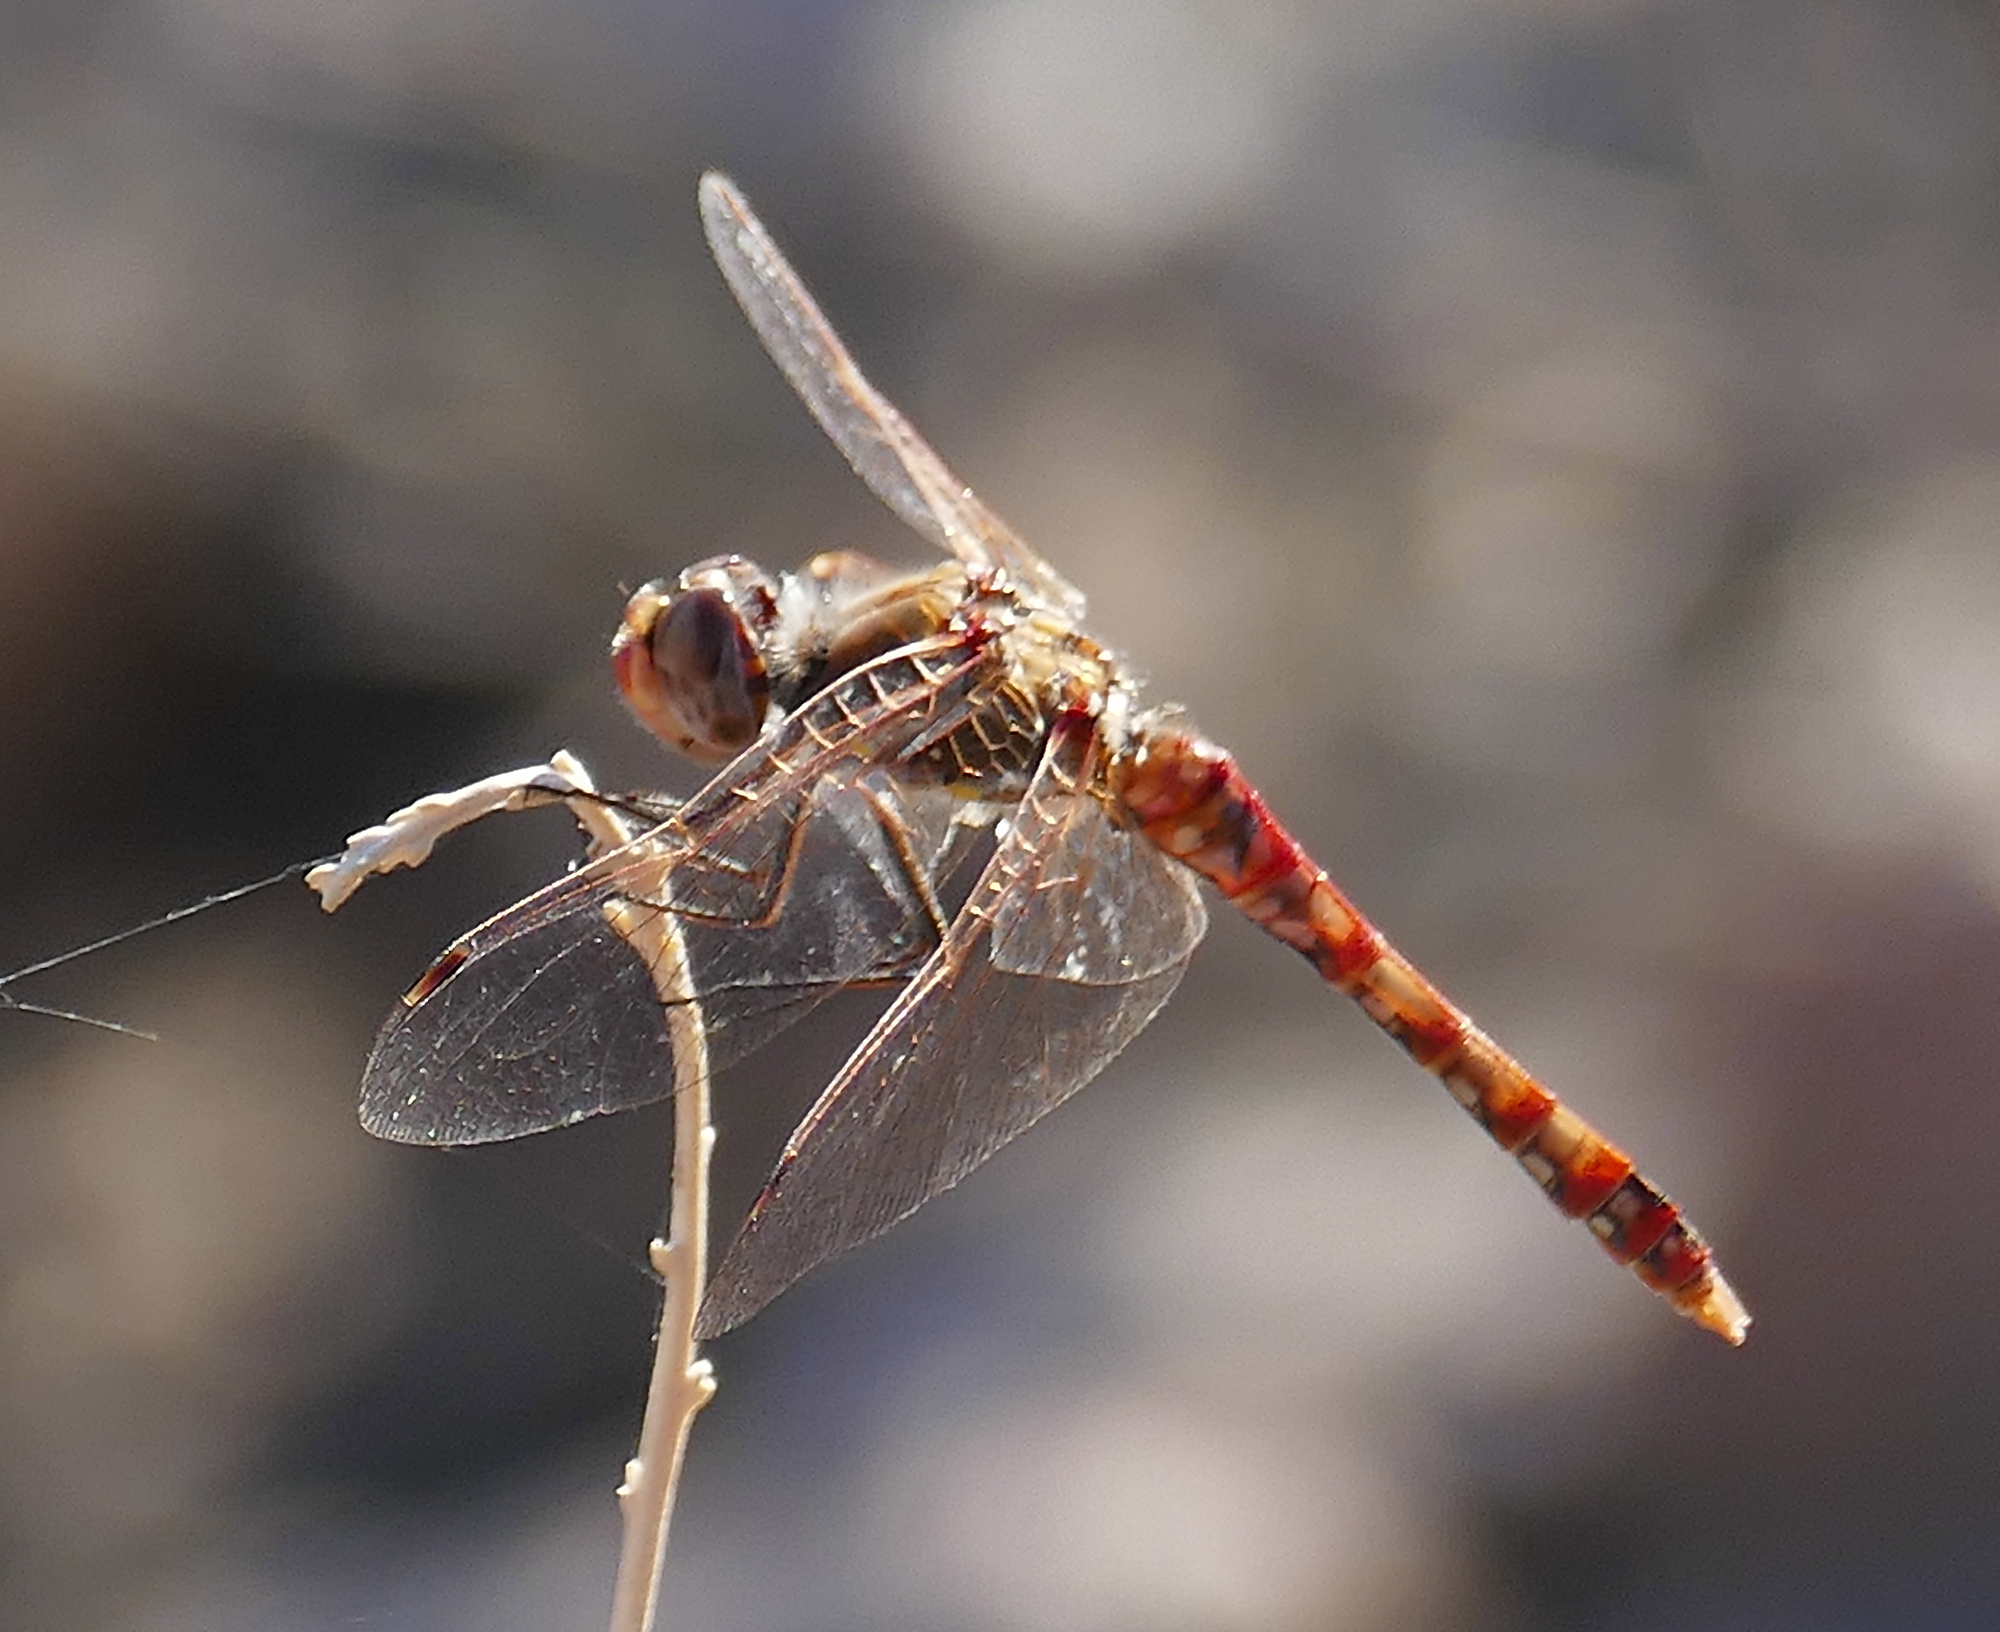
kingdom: Animalia
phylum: Arthropoda
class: Insecta
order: Odonata
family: Libellulidae
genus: Sympetrum
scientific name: Sympetrum corruptum
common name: Variegated meadowhawk
